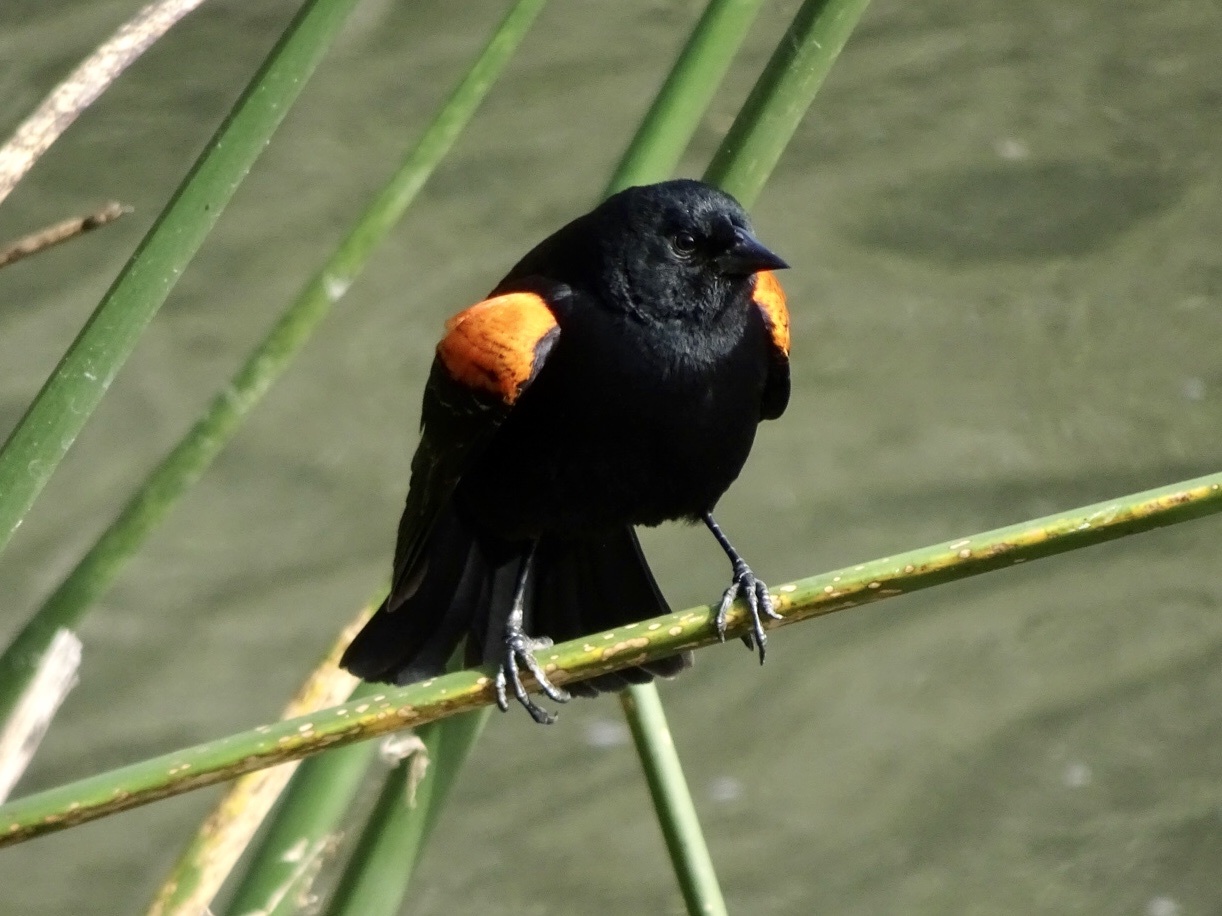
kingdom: Animalia
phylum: Chordata
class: Aves
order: Passeriformes
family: Icteridae
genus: Agelaius
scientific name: Agelaius phoeniceus
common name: Red-winged blackbird
